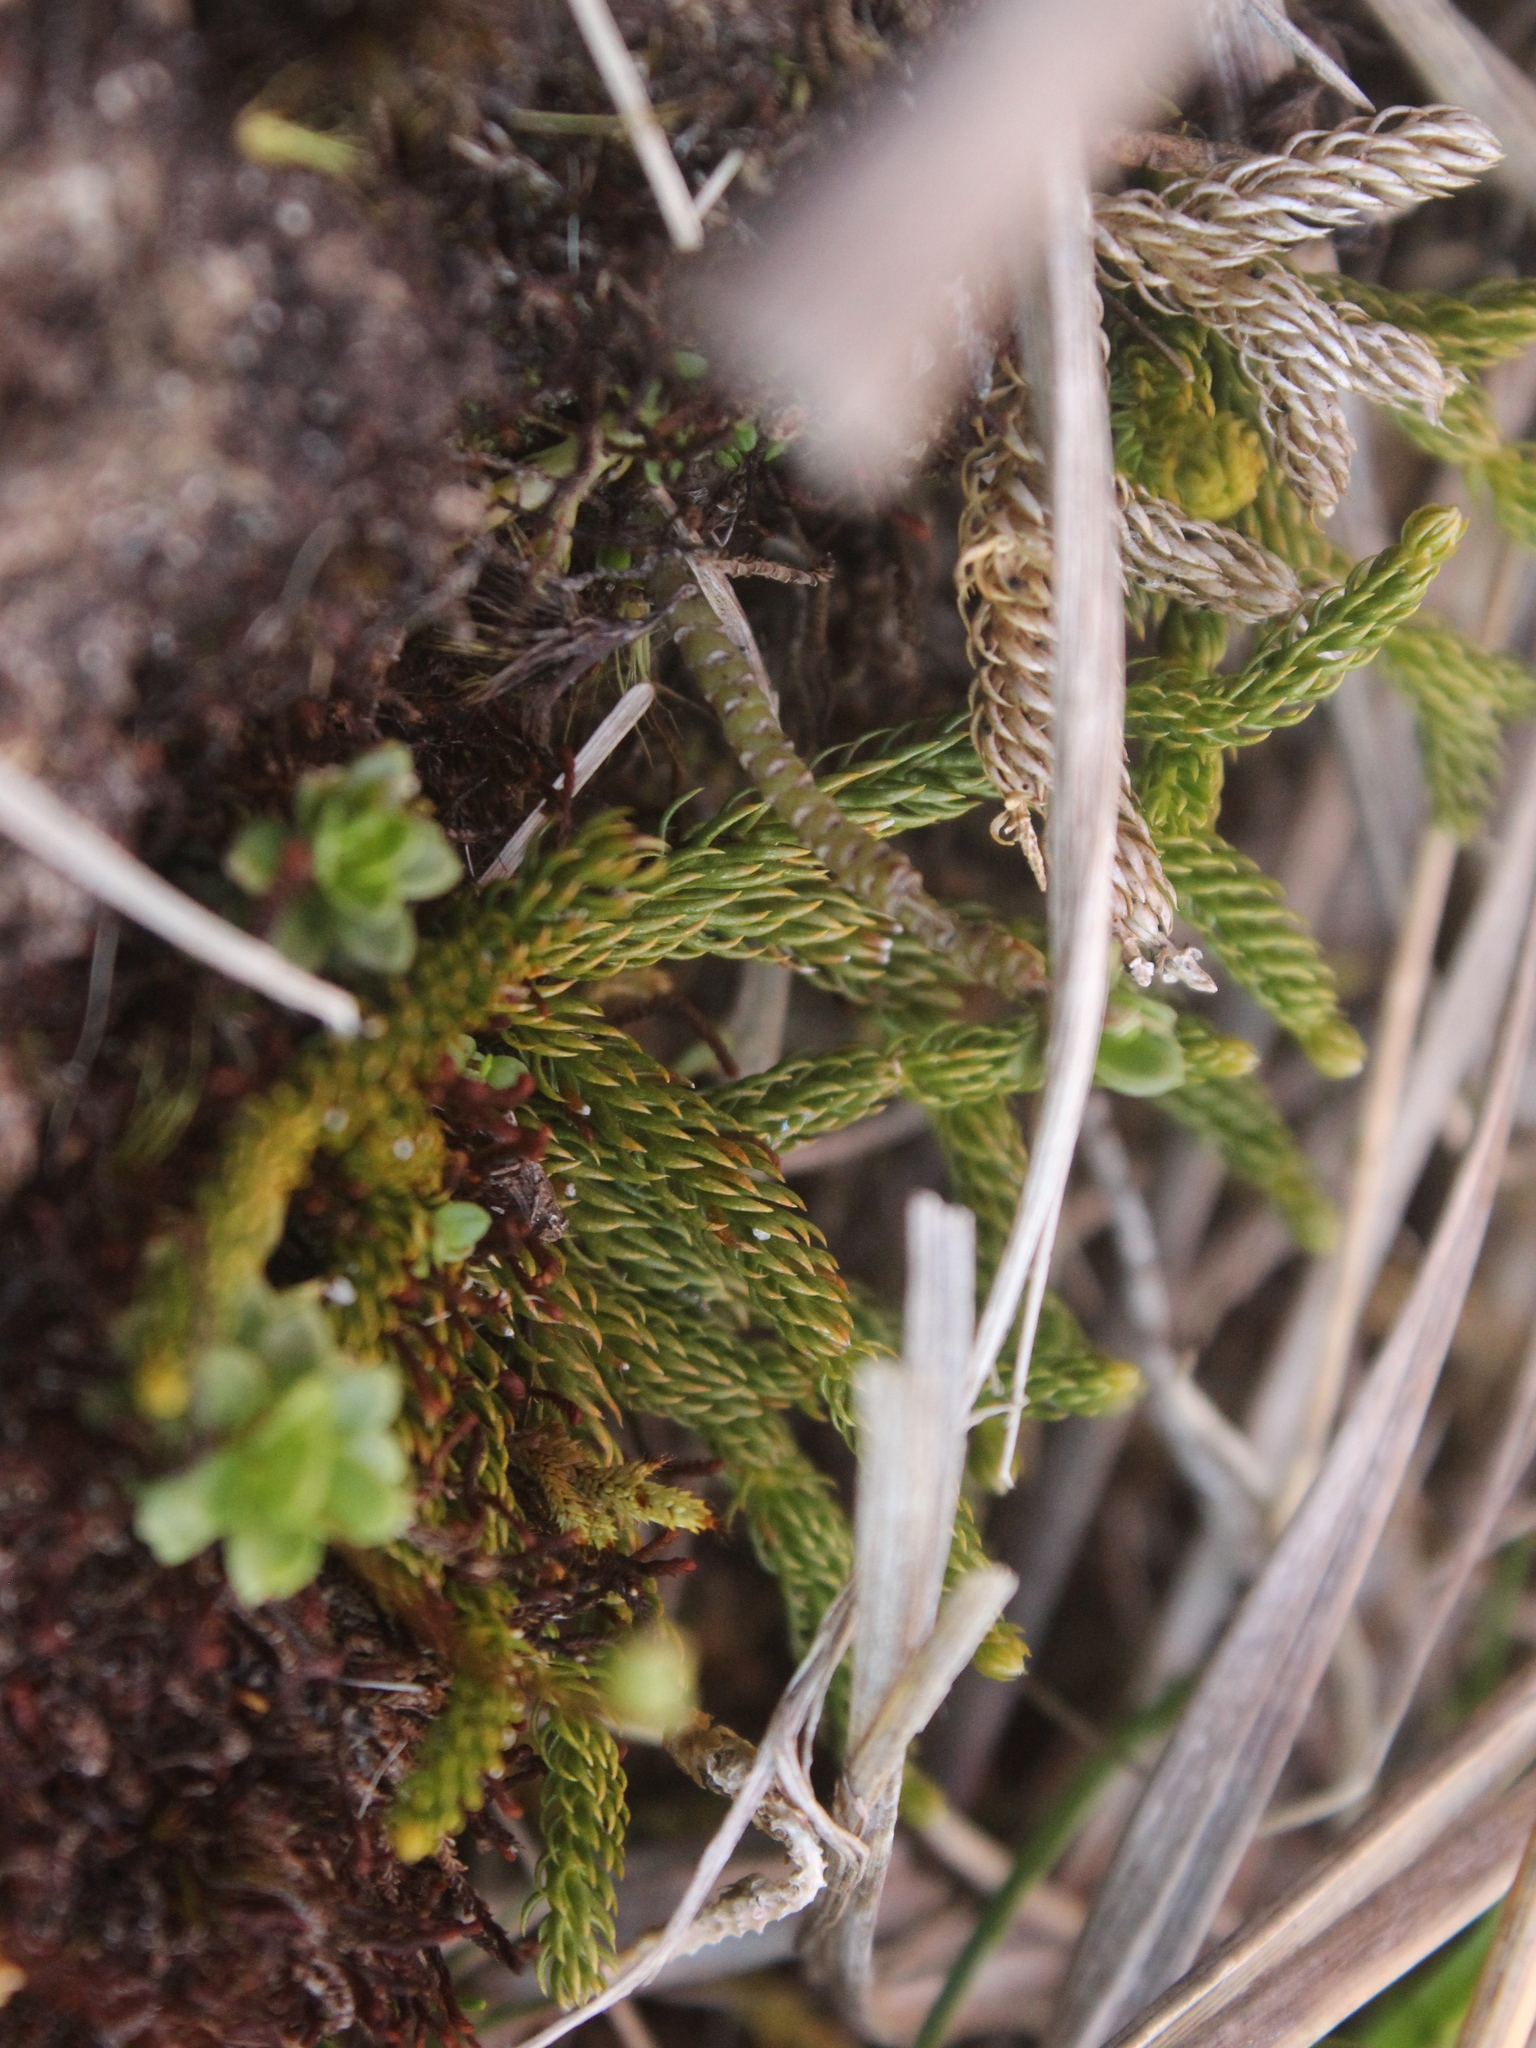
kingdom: Plantae
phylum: Tracheophyta
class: Lycopodiopsida
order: Lycopodiales
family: Lycopodiaceae
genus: Austrolycopodium
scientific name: Austrolycopodium fastigiatum
